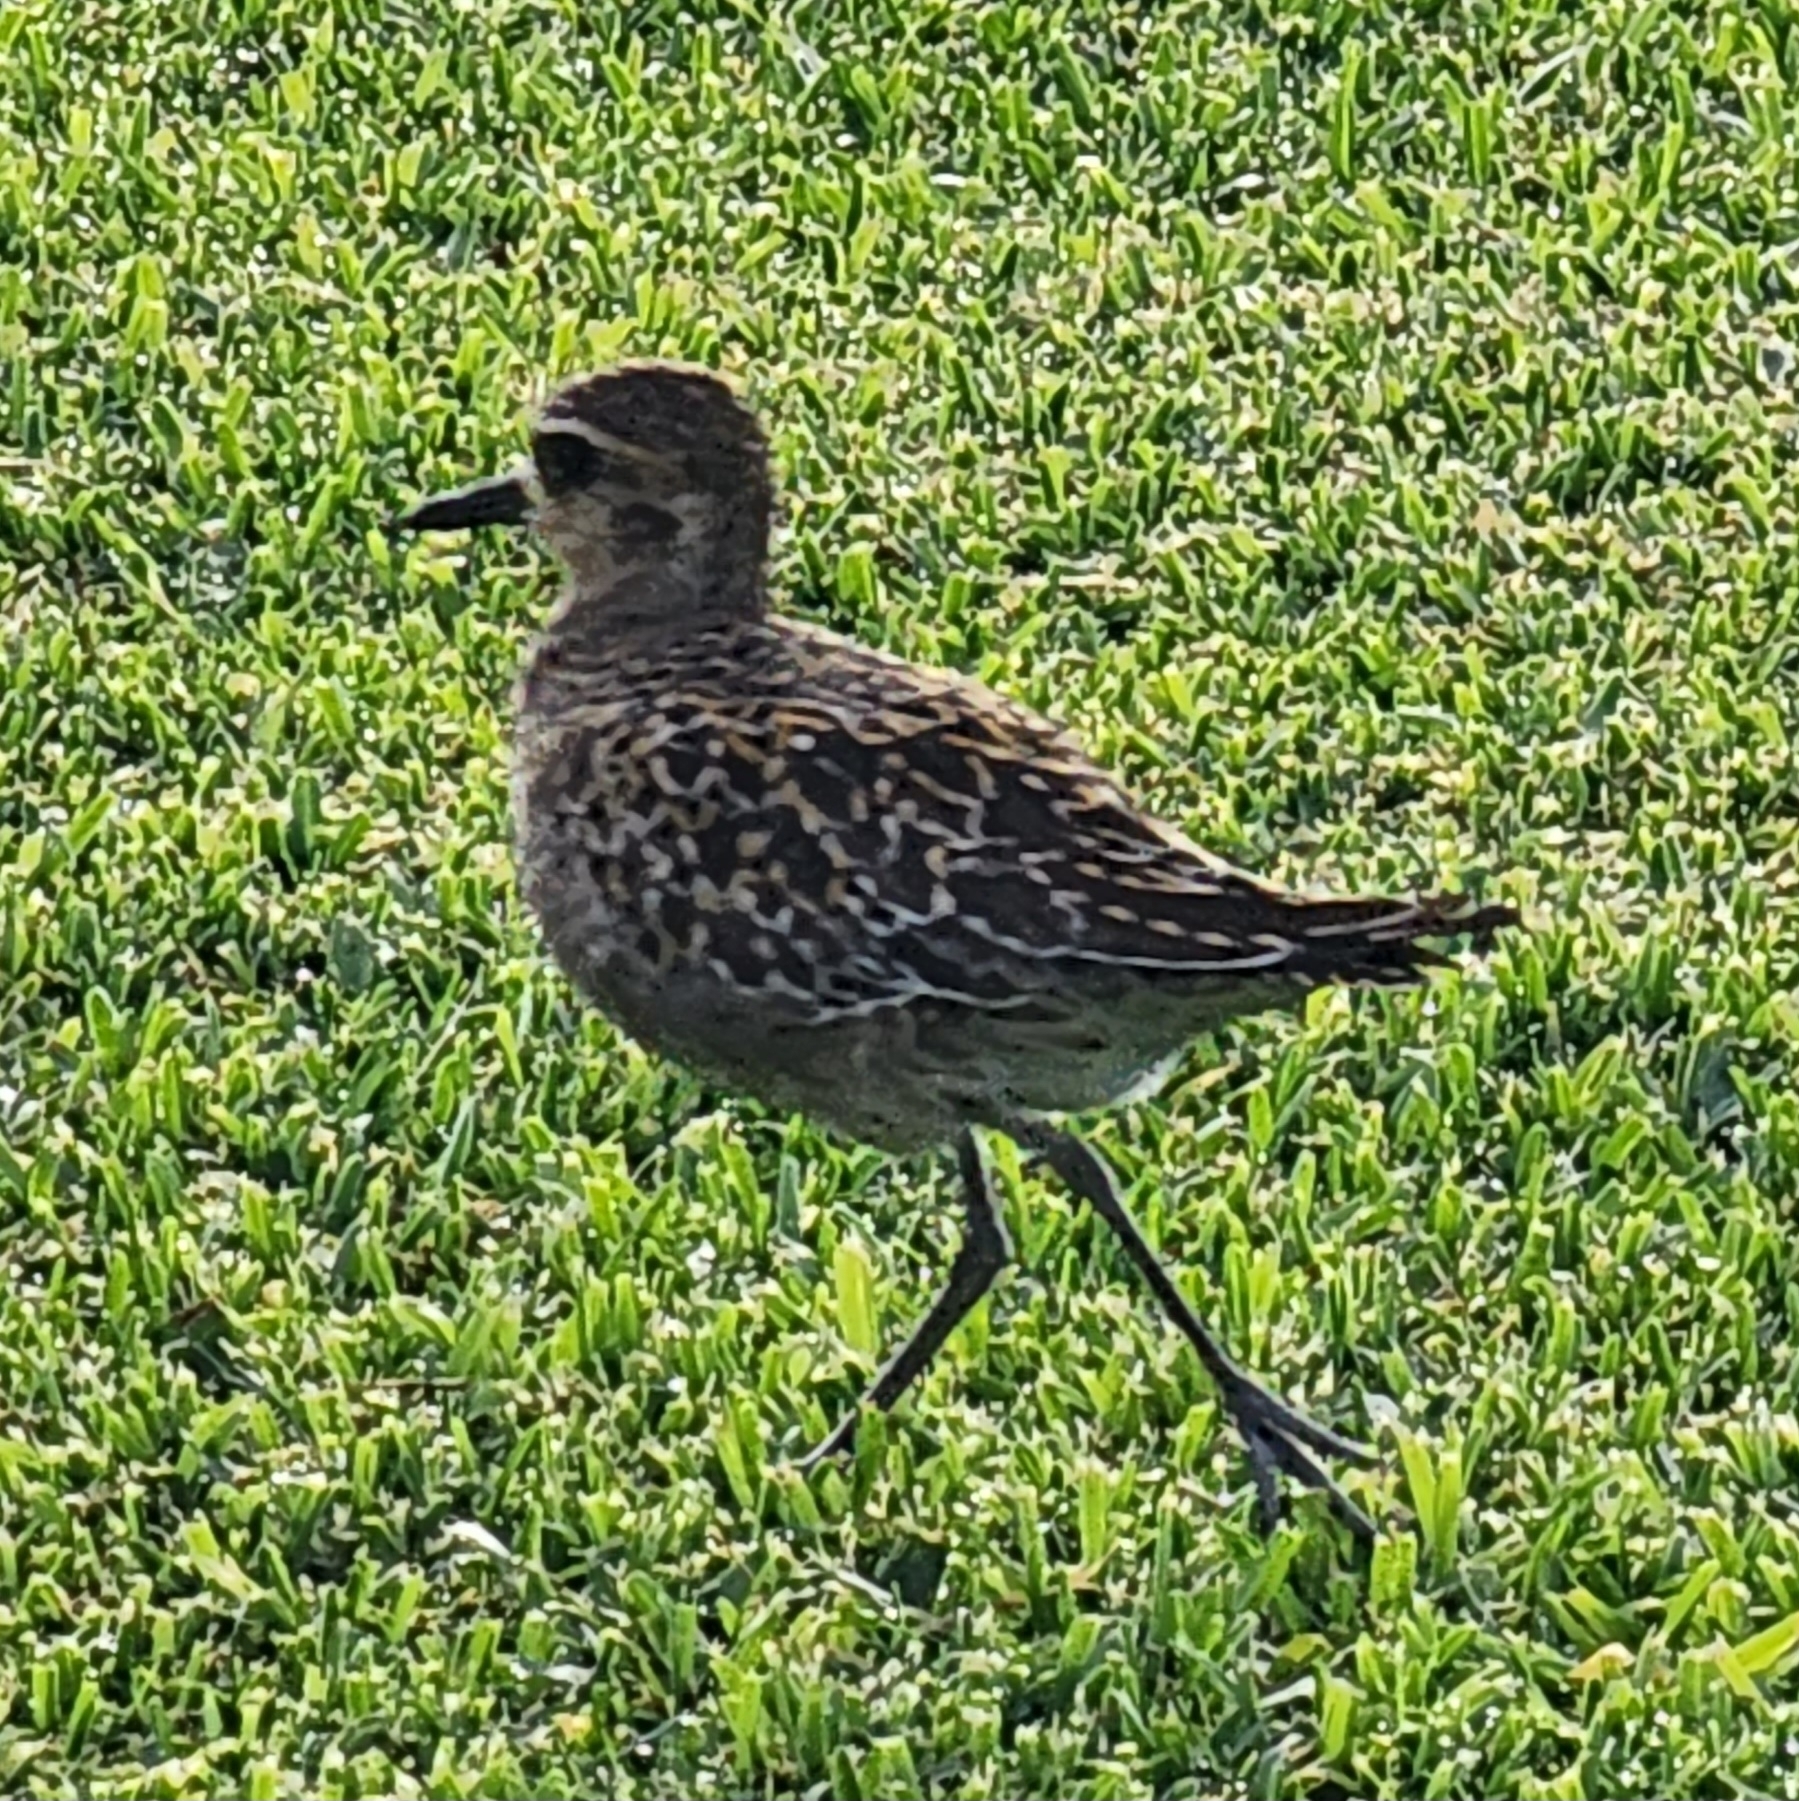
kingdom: Animalia
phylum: Chordata
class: Aves
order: Charadriiformes
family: Charadriidae
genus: Pluvialis
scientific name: Pluvialis fulva
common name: Pacific golden plover
